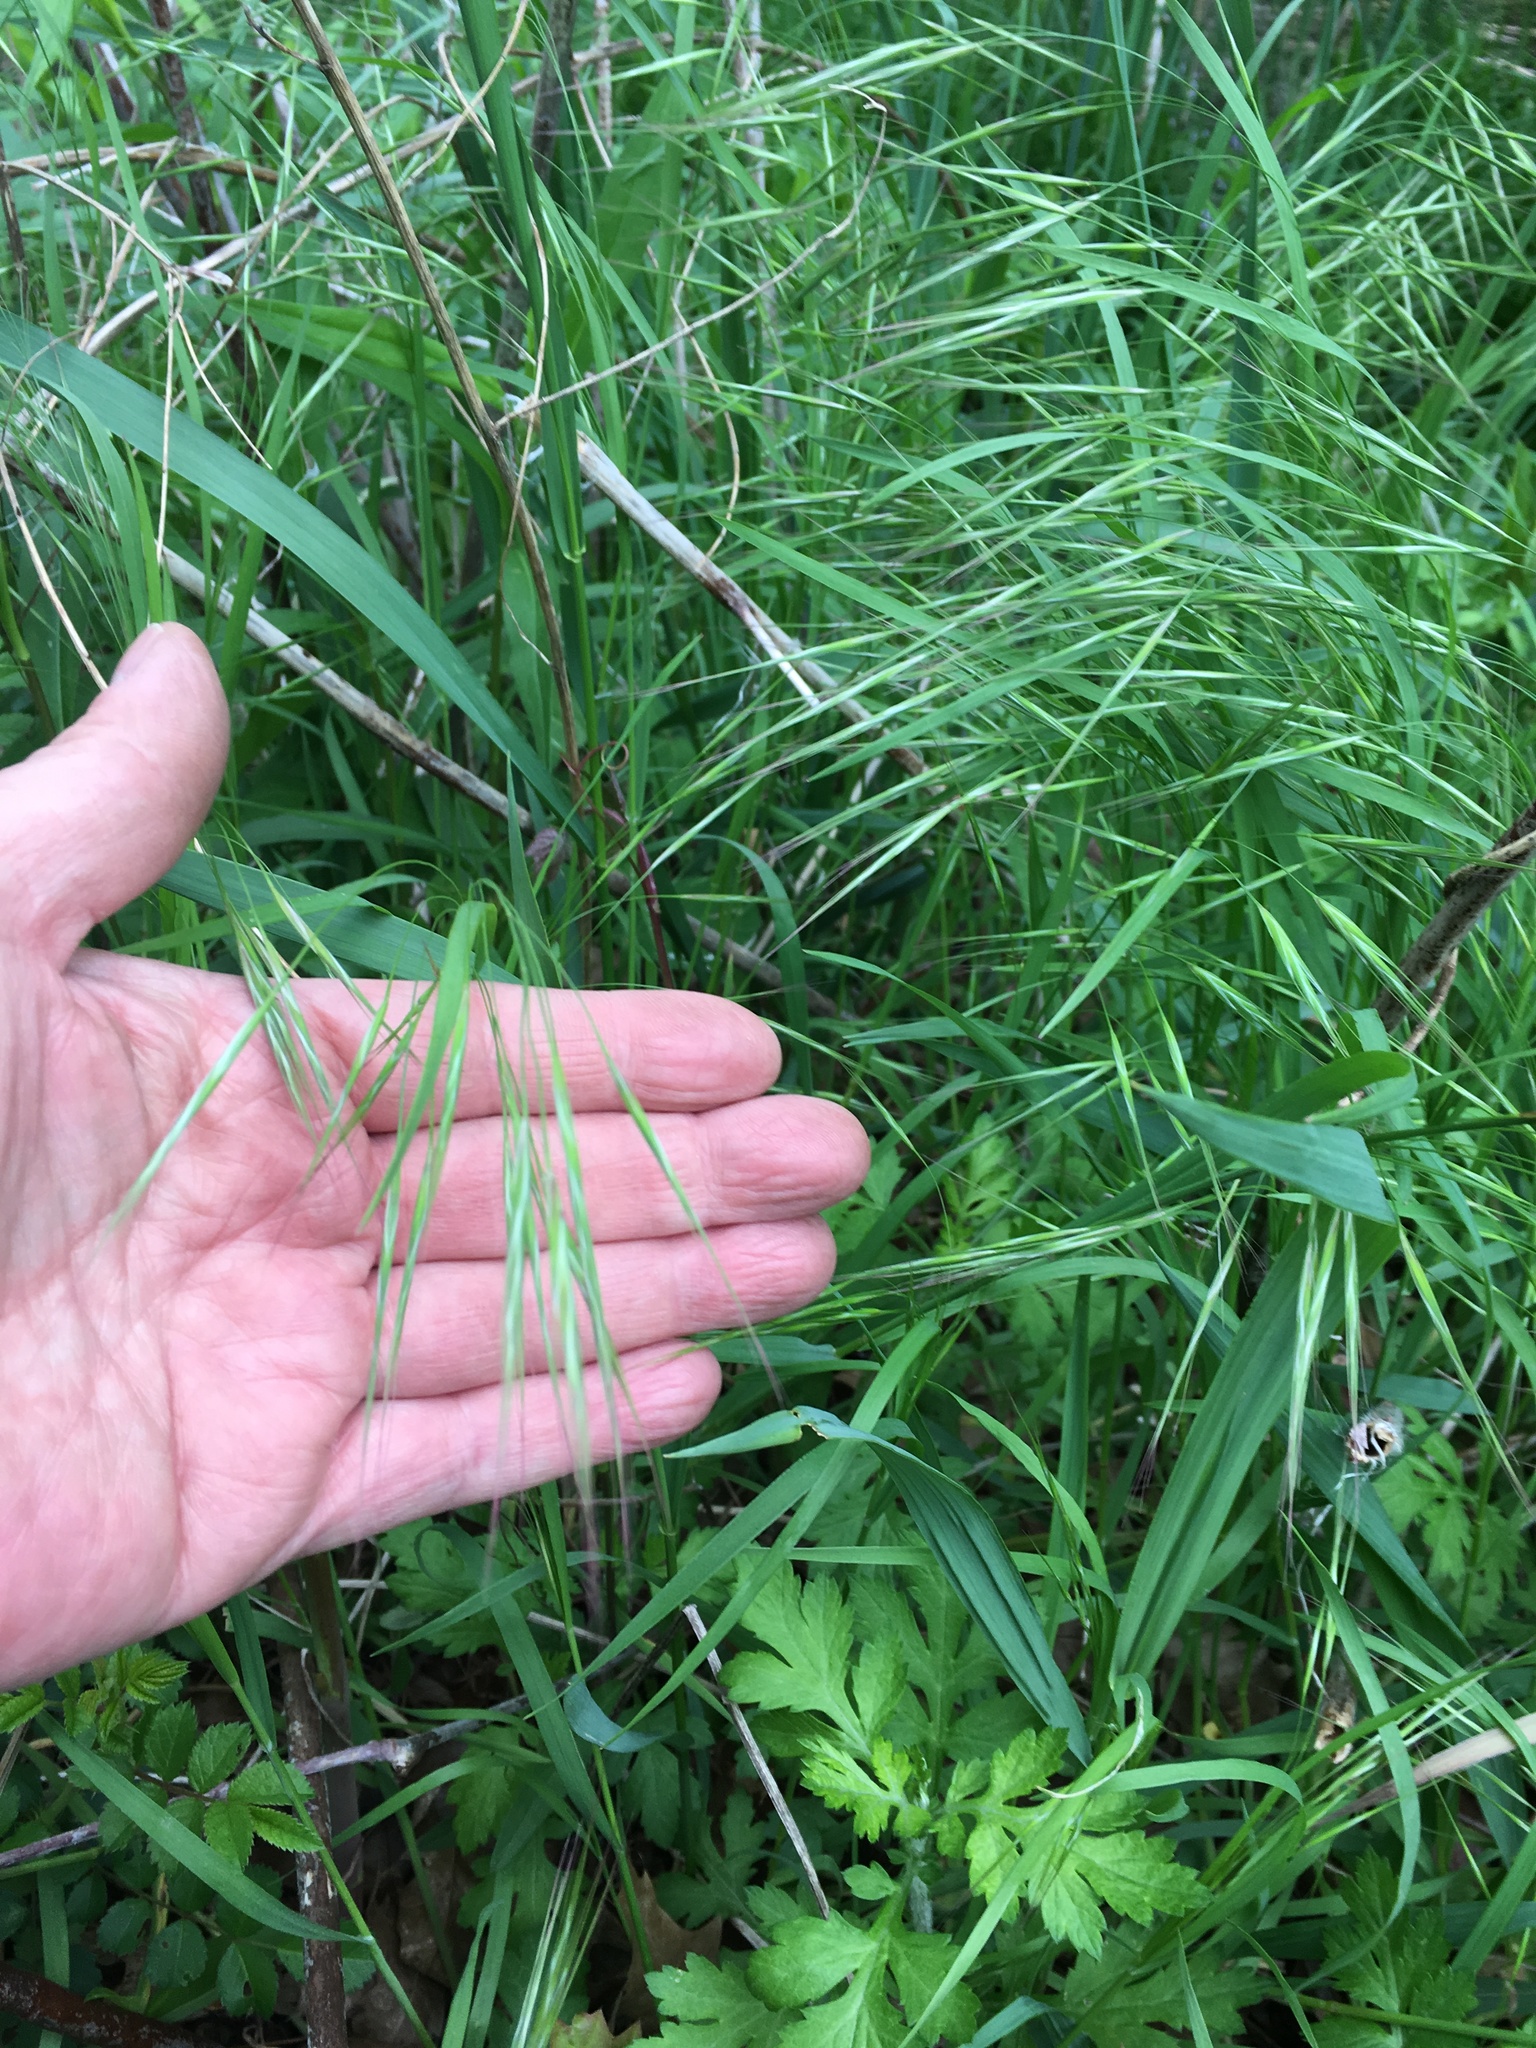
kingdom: Plantae
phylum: Tracheophyta
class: Liliopsida
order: Poales
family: Poaceae
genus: Bromus
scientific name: Bromus tectorum
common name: Cheatgrass
